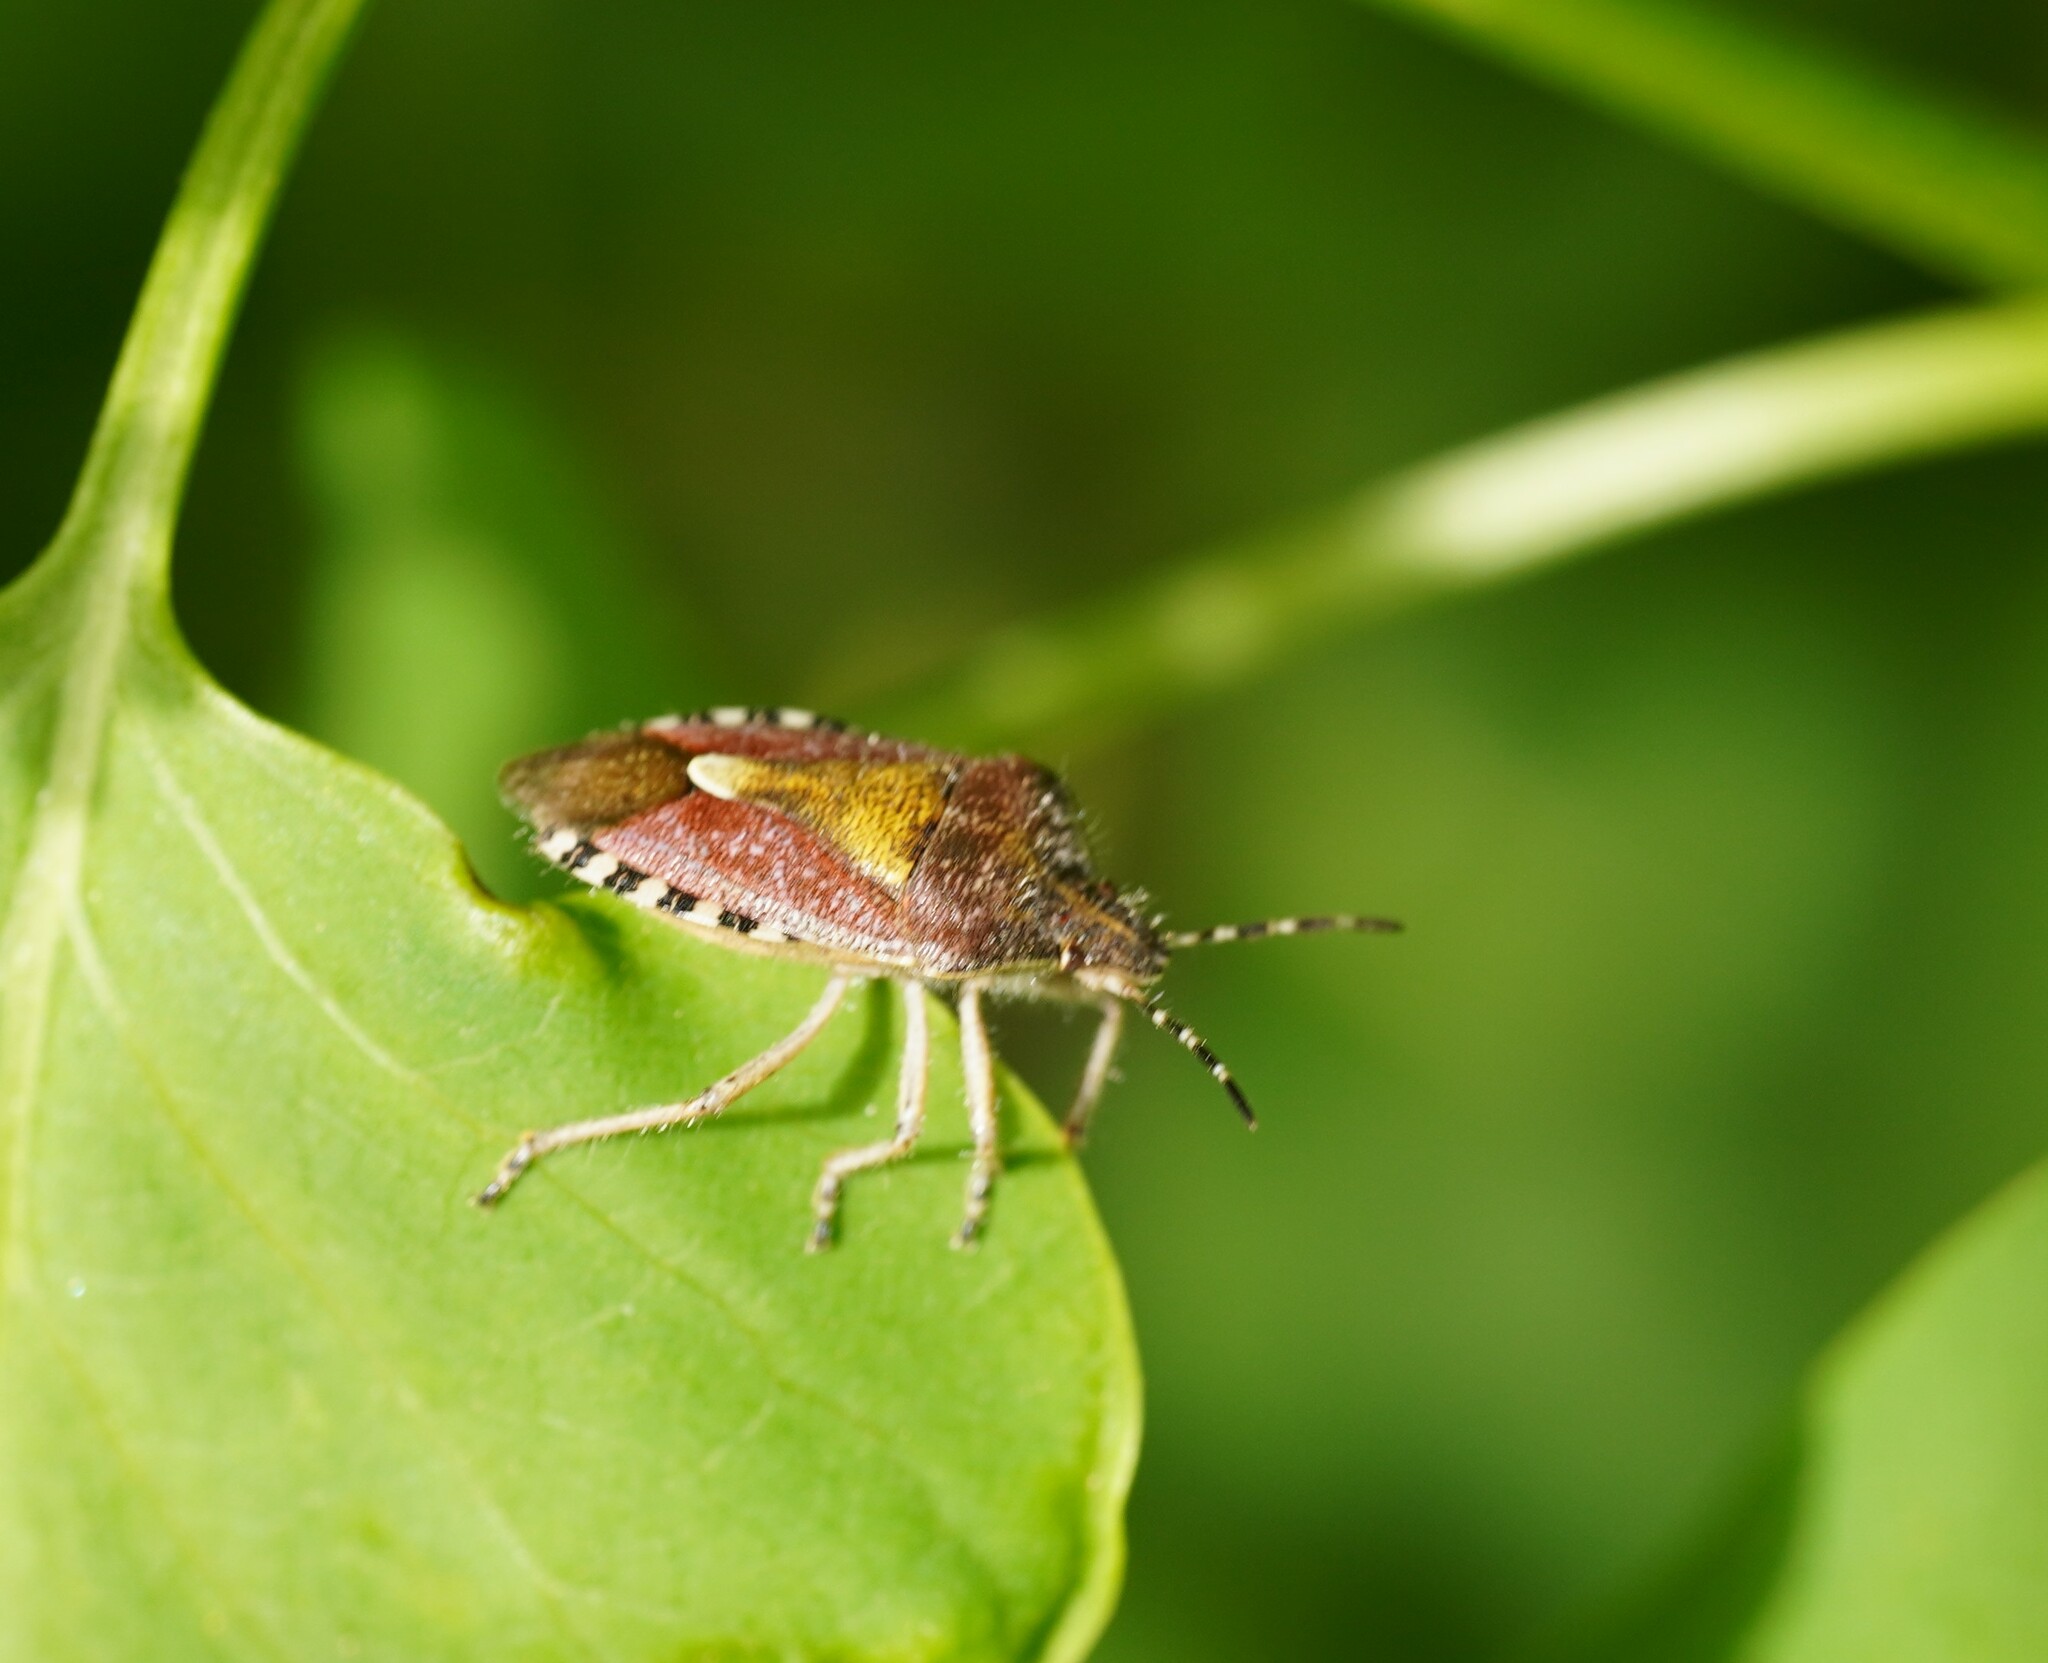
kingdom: Animalia
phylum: Arthropoda
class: Insecta
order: Hemiptera
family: Pentatomidae
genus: Dolycoris
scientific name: Dolycoris baccarum
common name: Sloe bug
